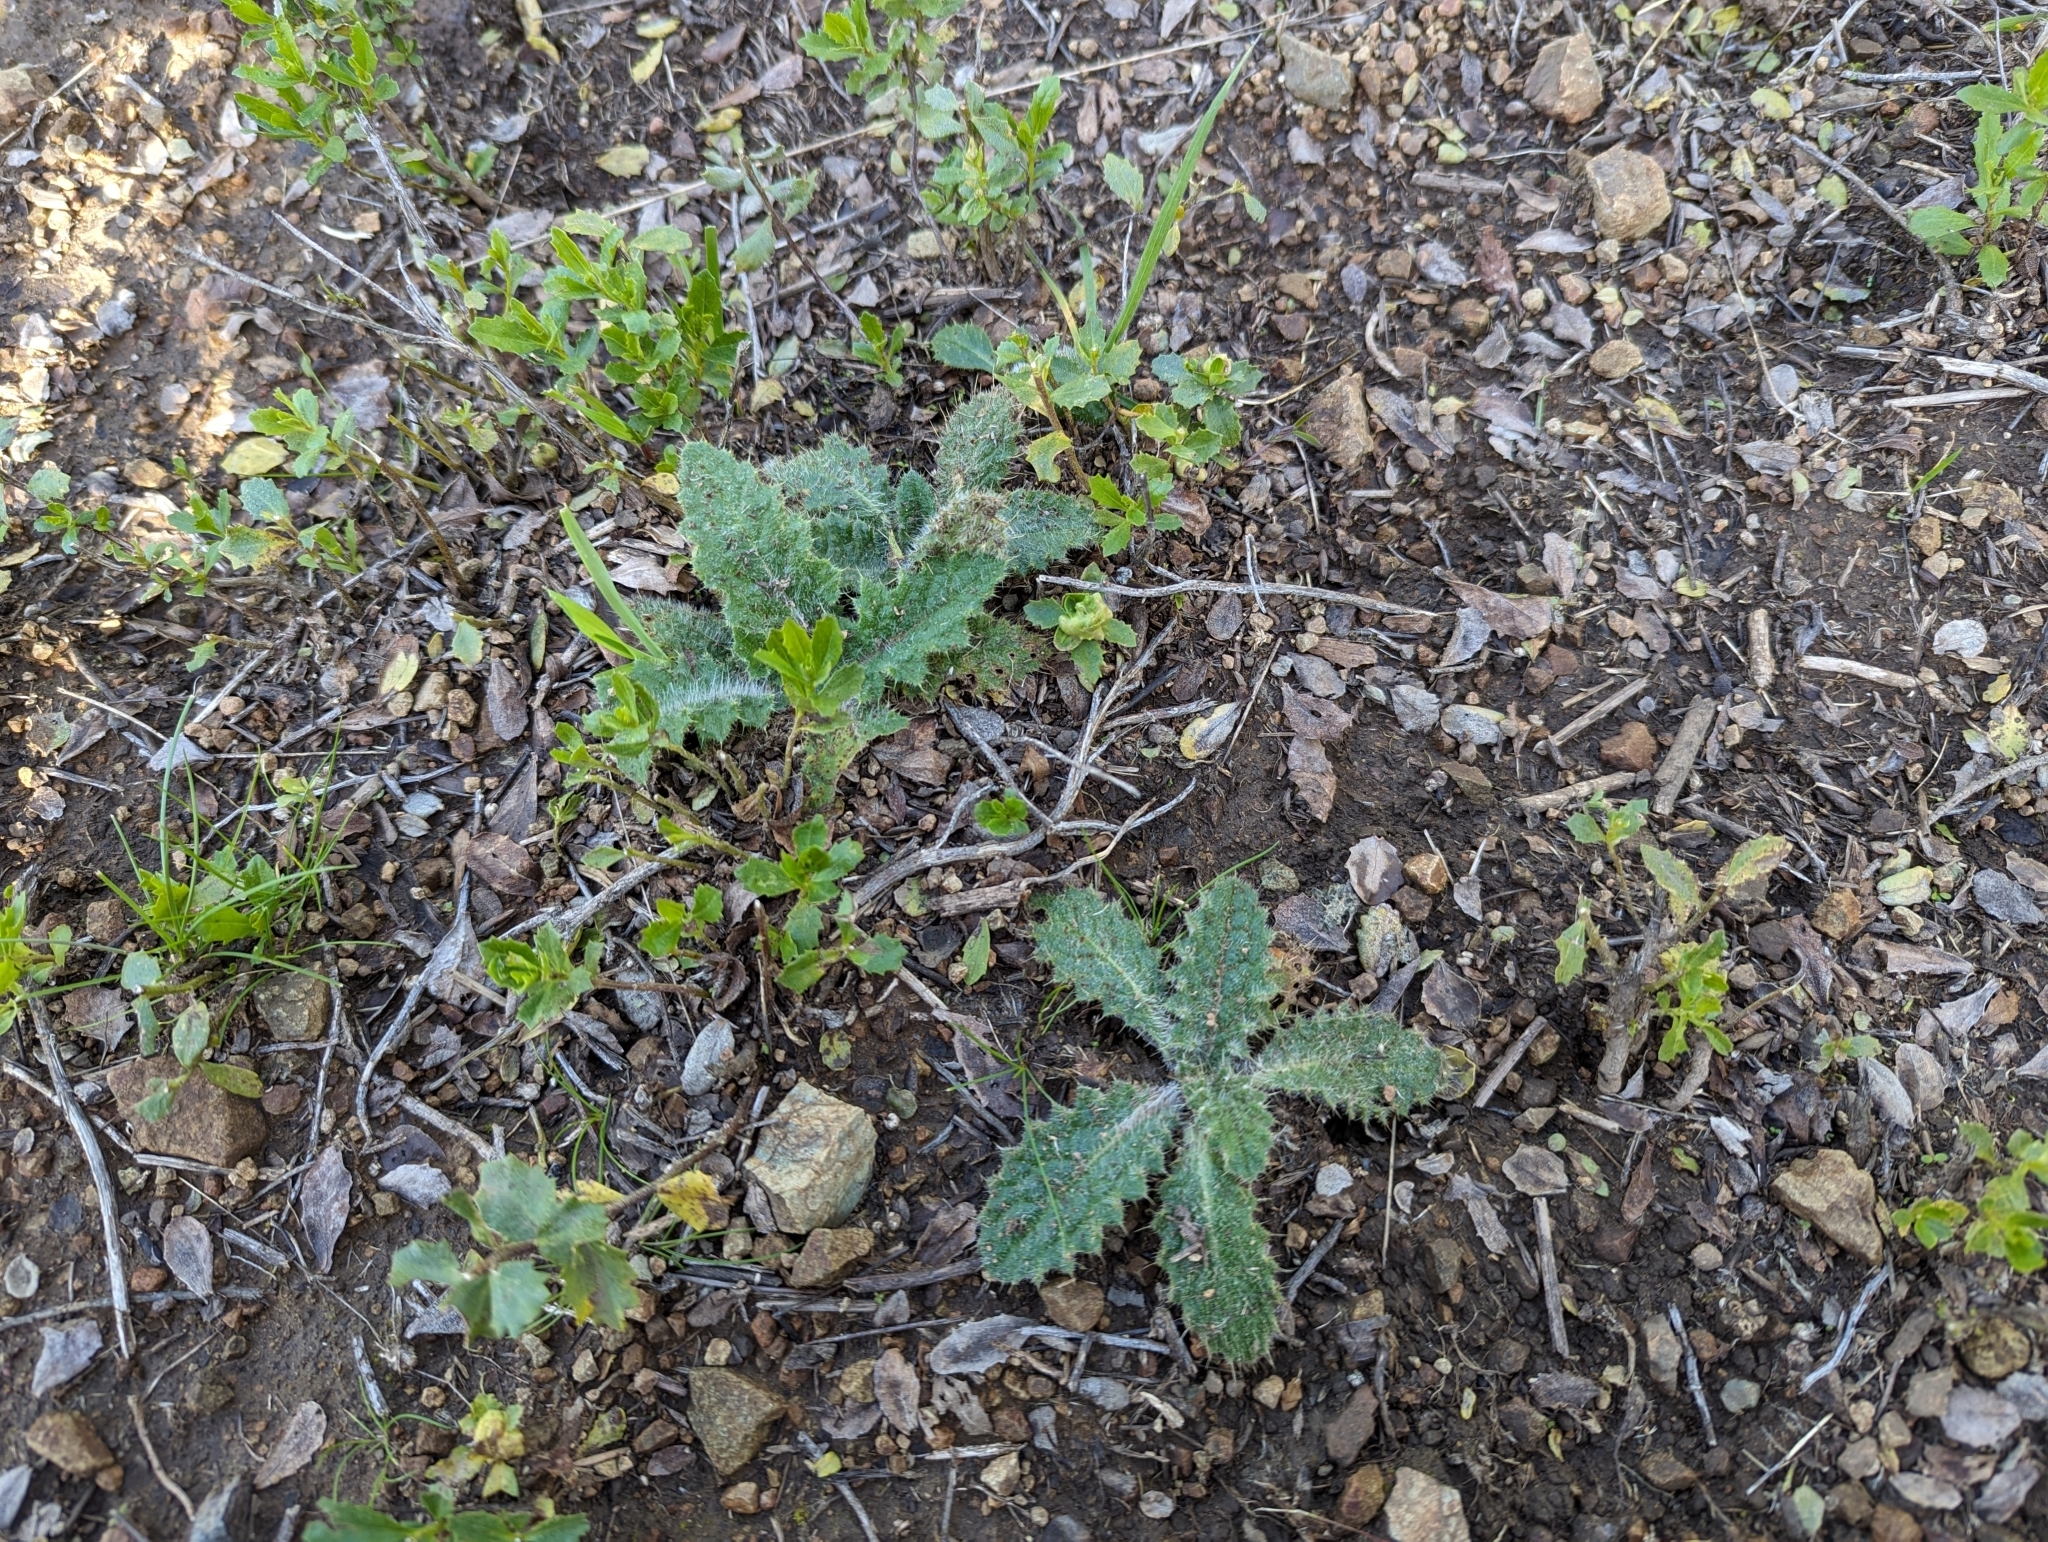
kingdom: Plantae
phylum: Tracheophyta
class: Magnoliopsida
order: Asterales
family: Asteraceae
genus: Cirsium
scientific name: Cirsium vulgare
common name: Bull thistle
